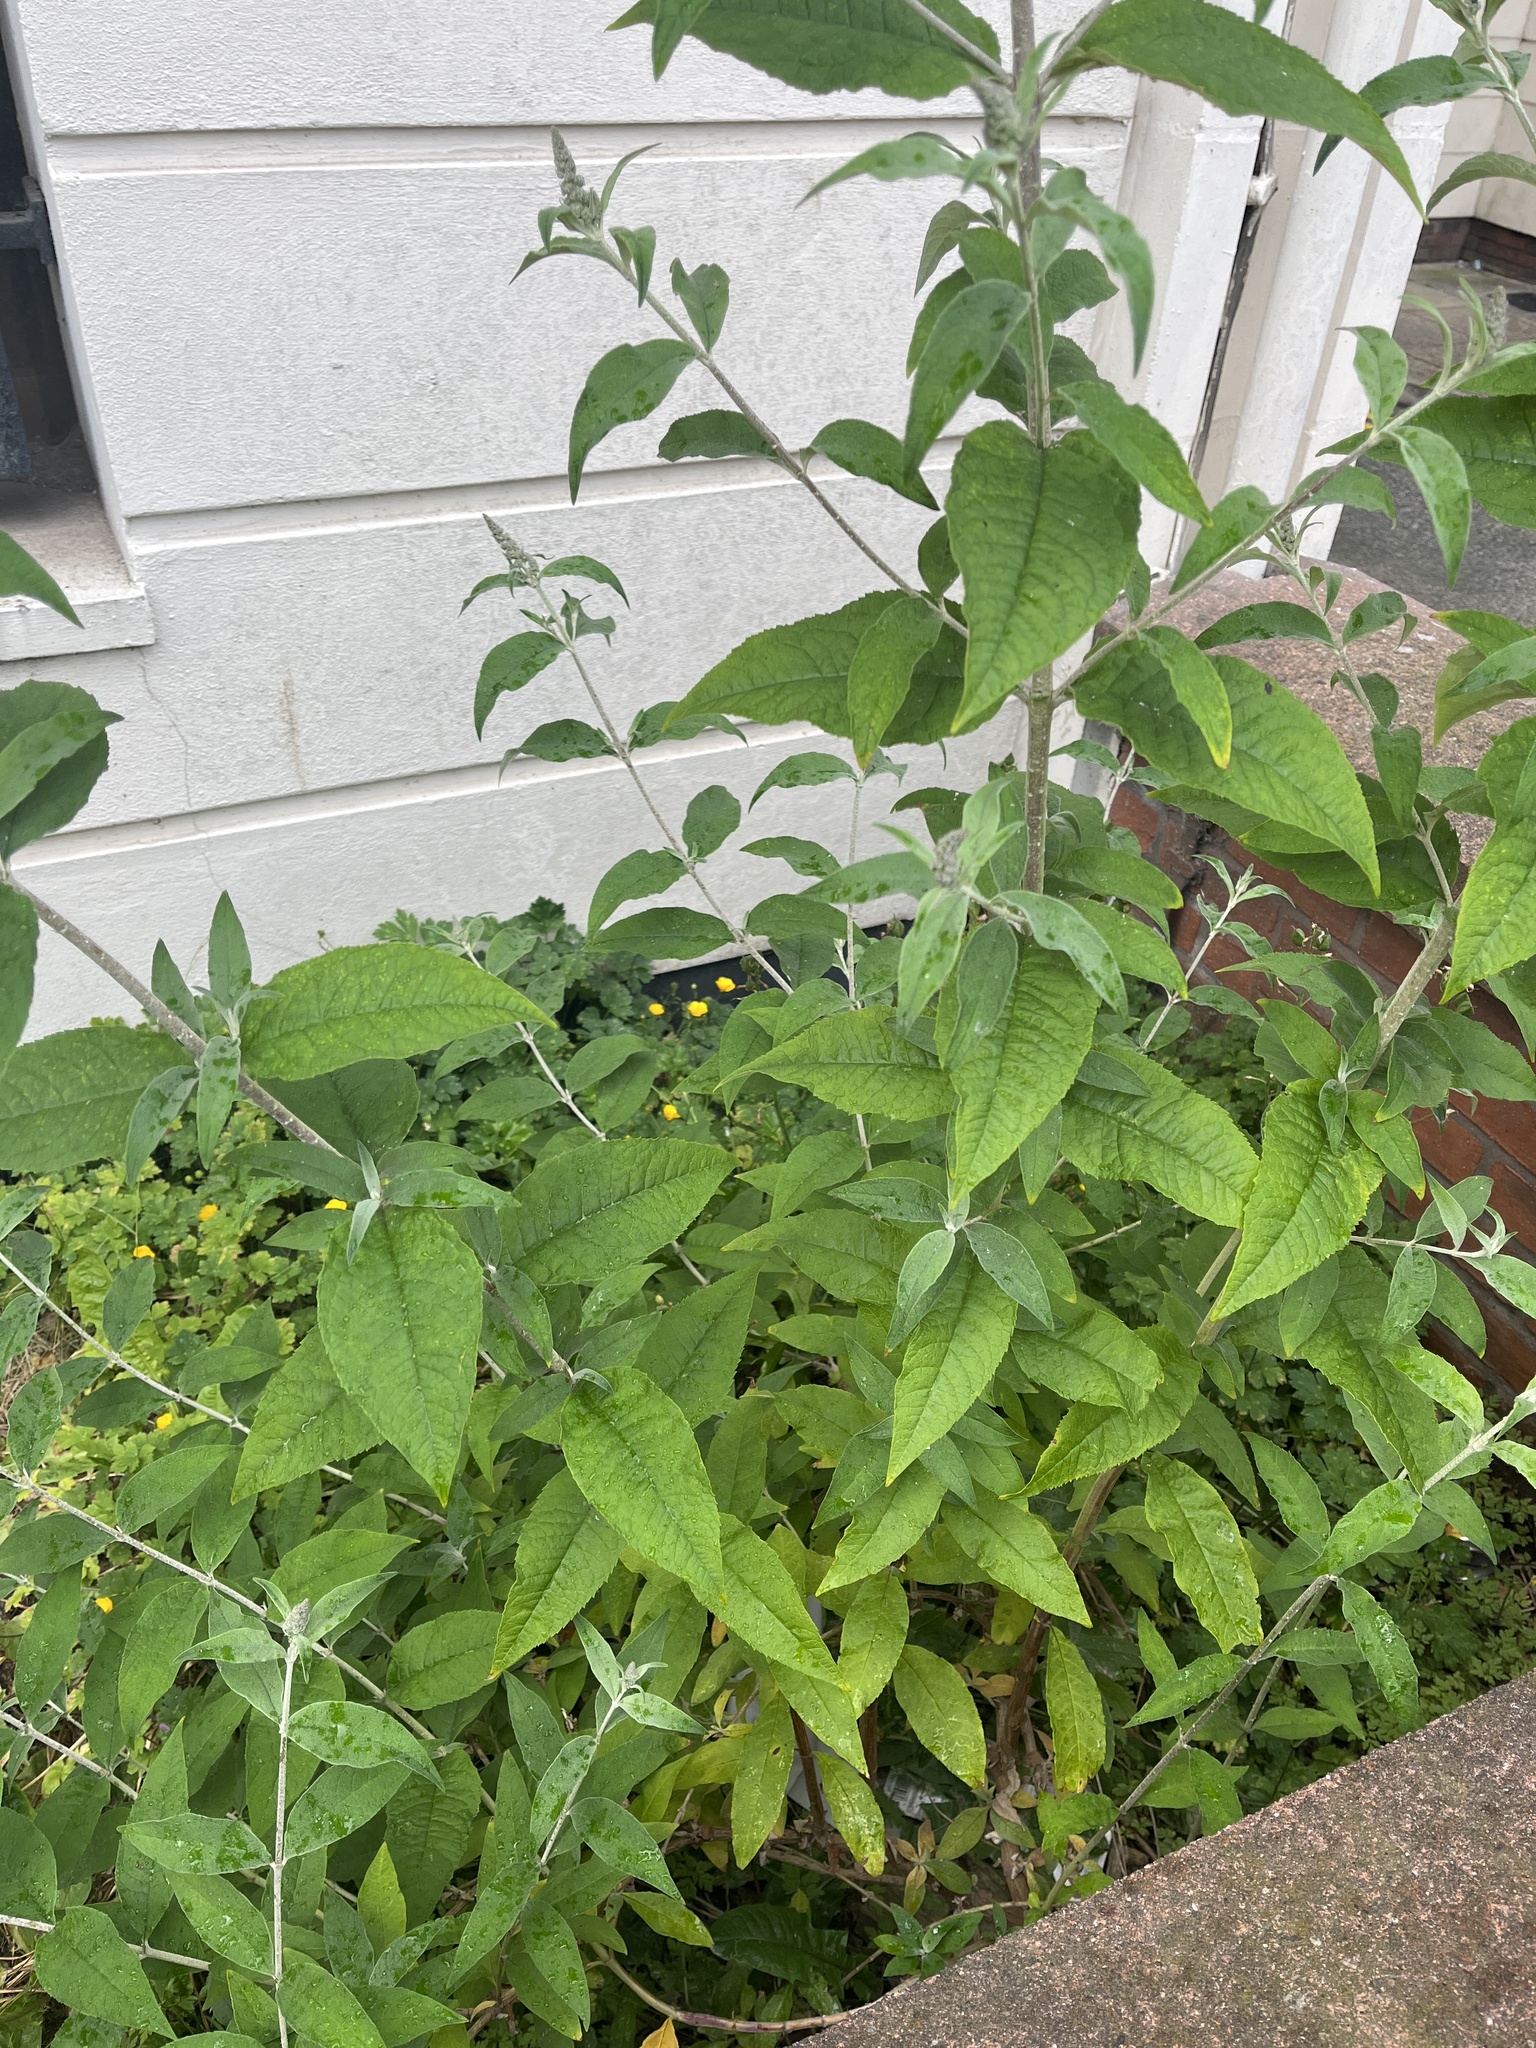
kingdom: Plantae
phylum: Tracheophyta
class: Magnoliopsida
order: Lamiales
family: Scrophulariaceae
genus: Buddleja
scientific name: Buddleja davidii
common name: Butterfly-bush
